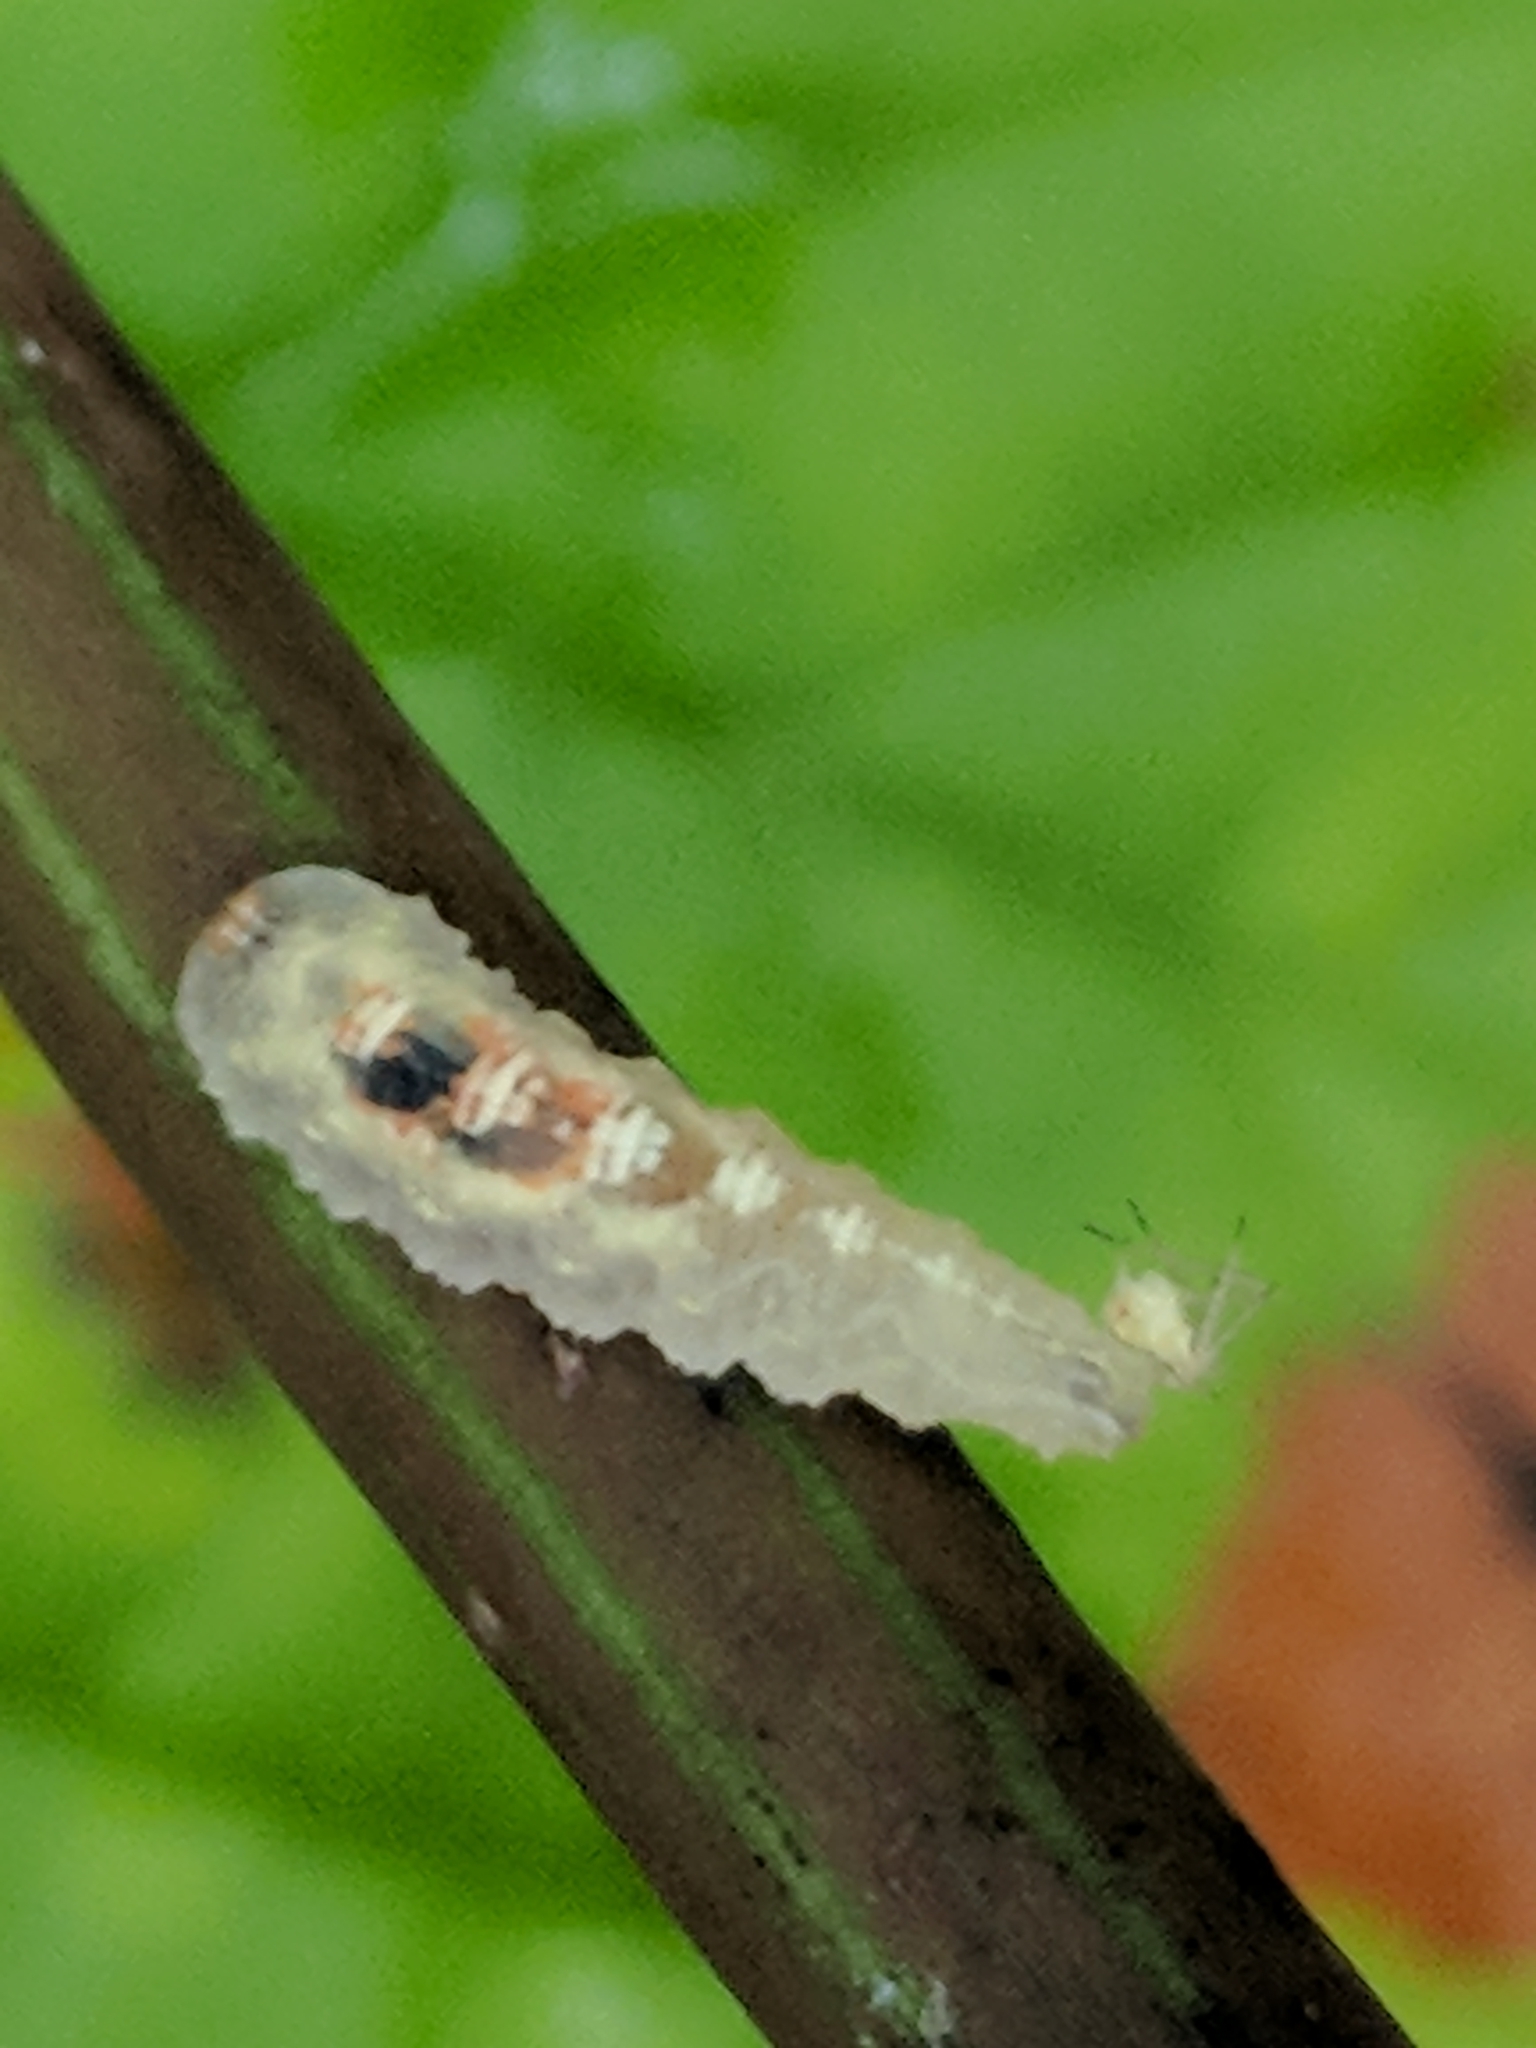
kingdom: Animalia
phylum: Arthropoda
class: Insecta
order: Diptera
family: Syrphidae
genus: Syrphus
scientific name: Syrphus
